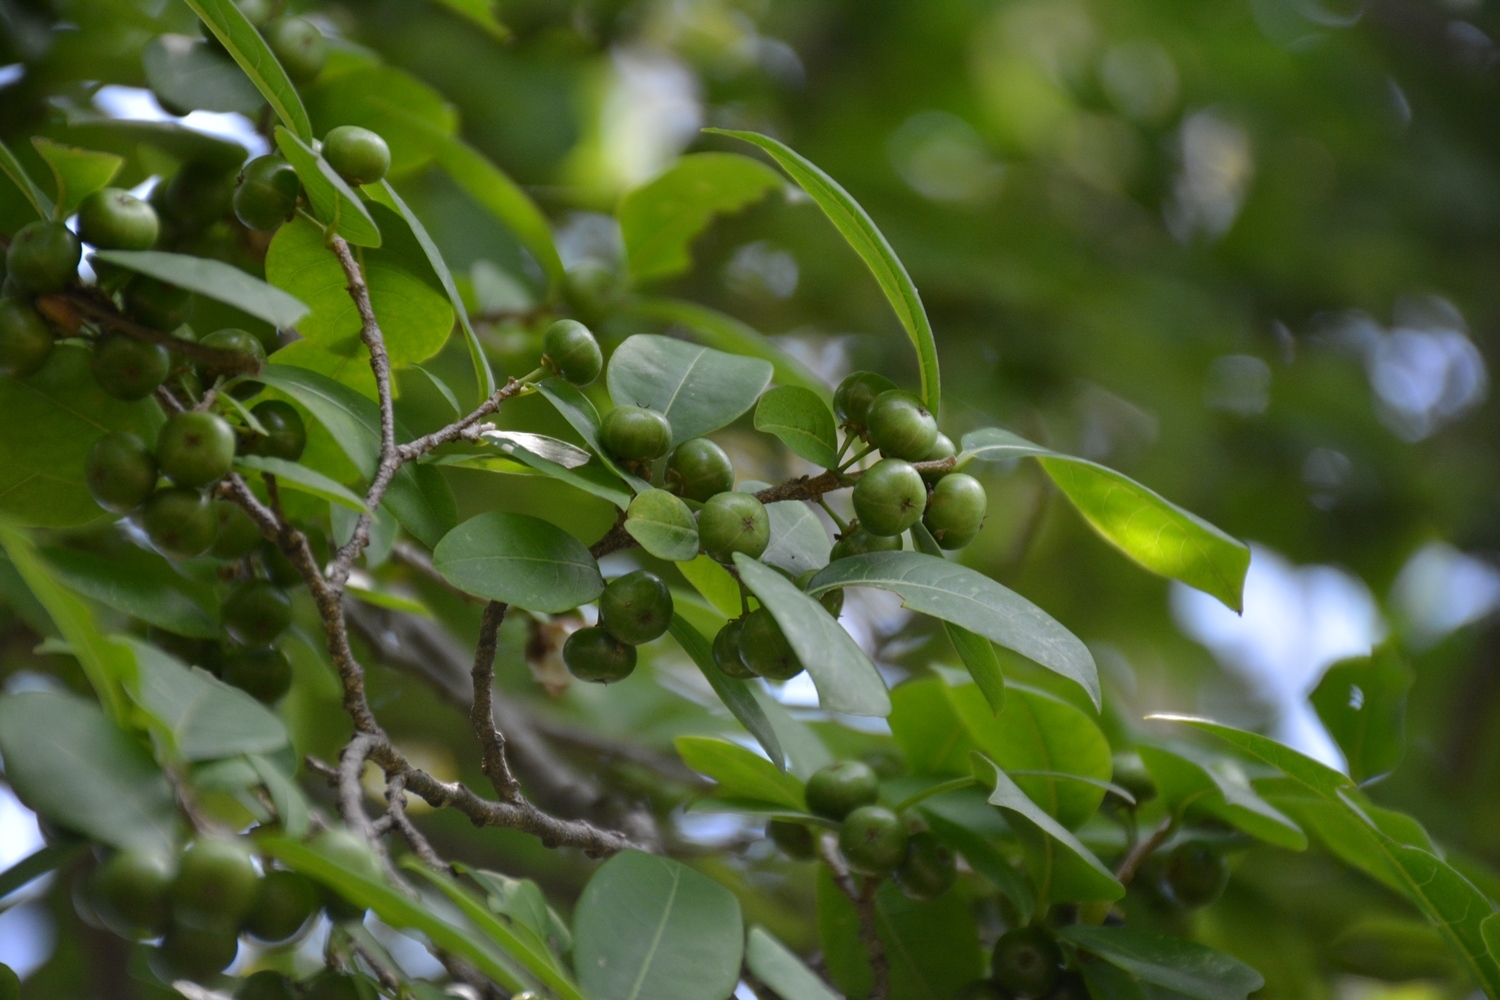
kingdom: Plantae
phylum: Tracheophyta
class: Magnoliopsida
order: Malpighiales
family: Phyllanthaceae
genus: Margaritaria
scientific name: Margaritaria nobilis
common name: Goose berry
